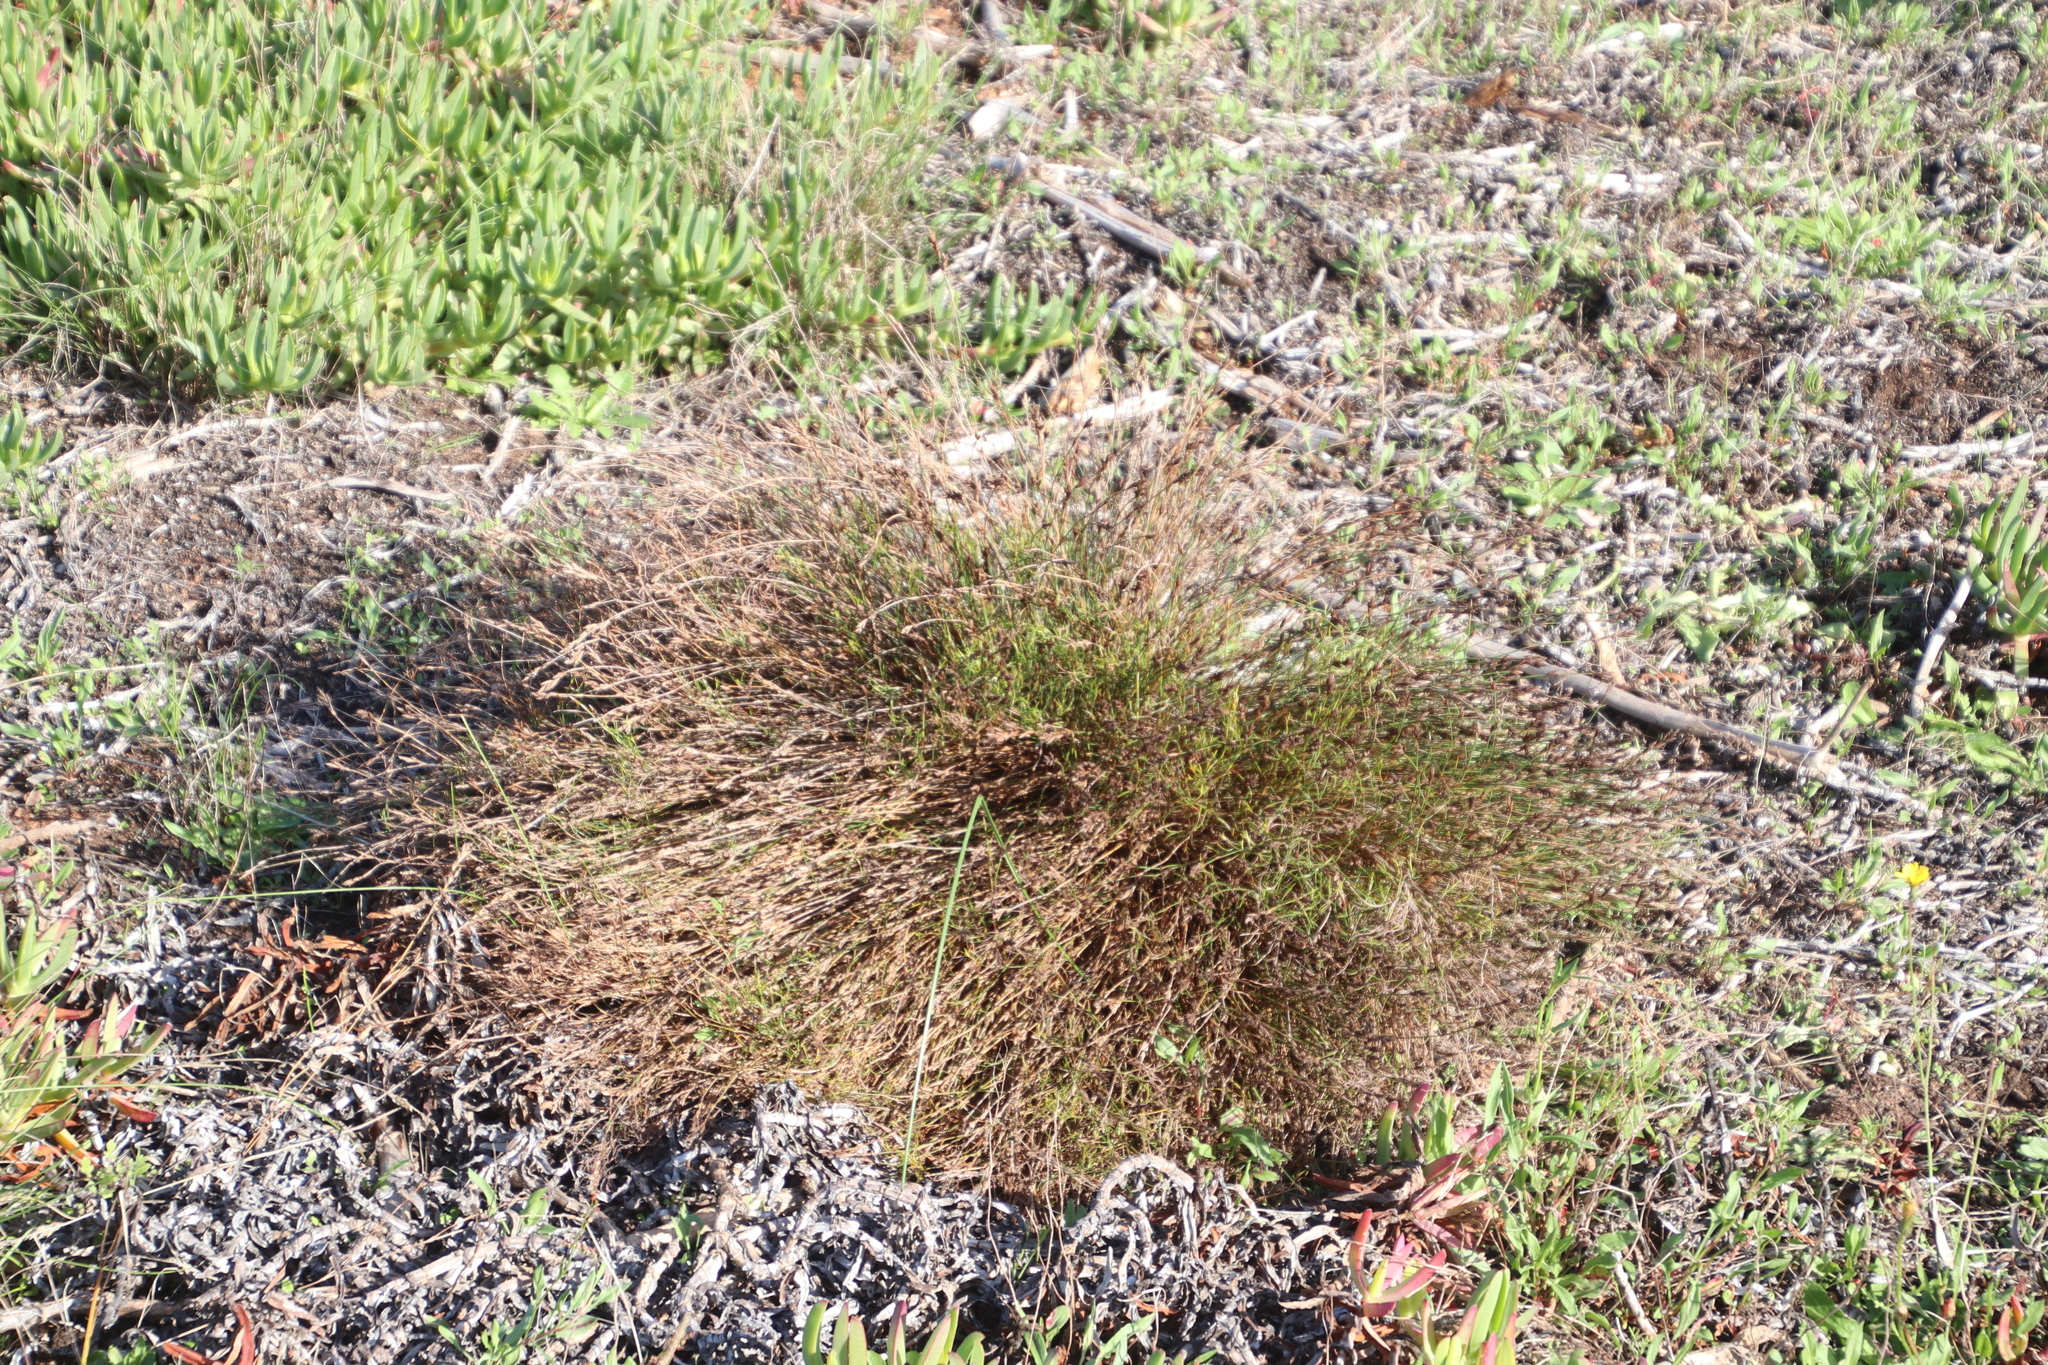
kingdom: Plantae
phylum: Tracheophyta
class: Liliopsida
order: Poales
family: Restionaceae
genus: Restio
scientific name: Restio capensis
